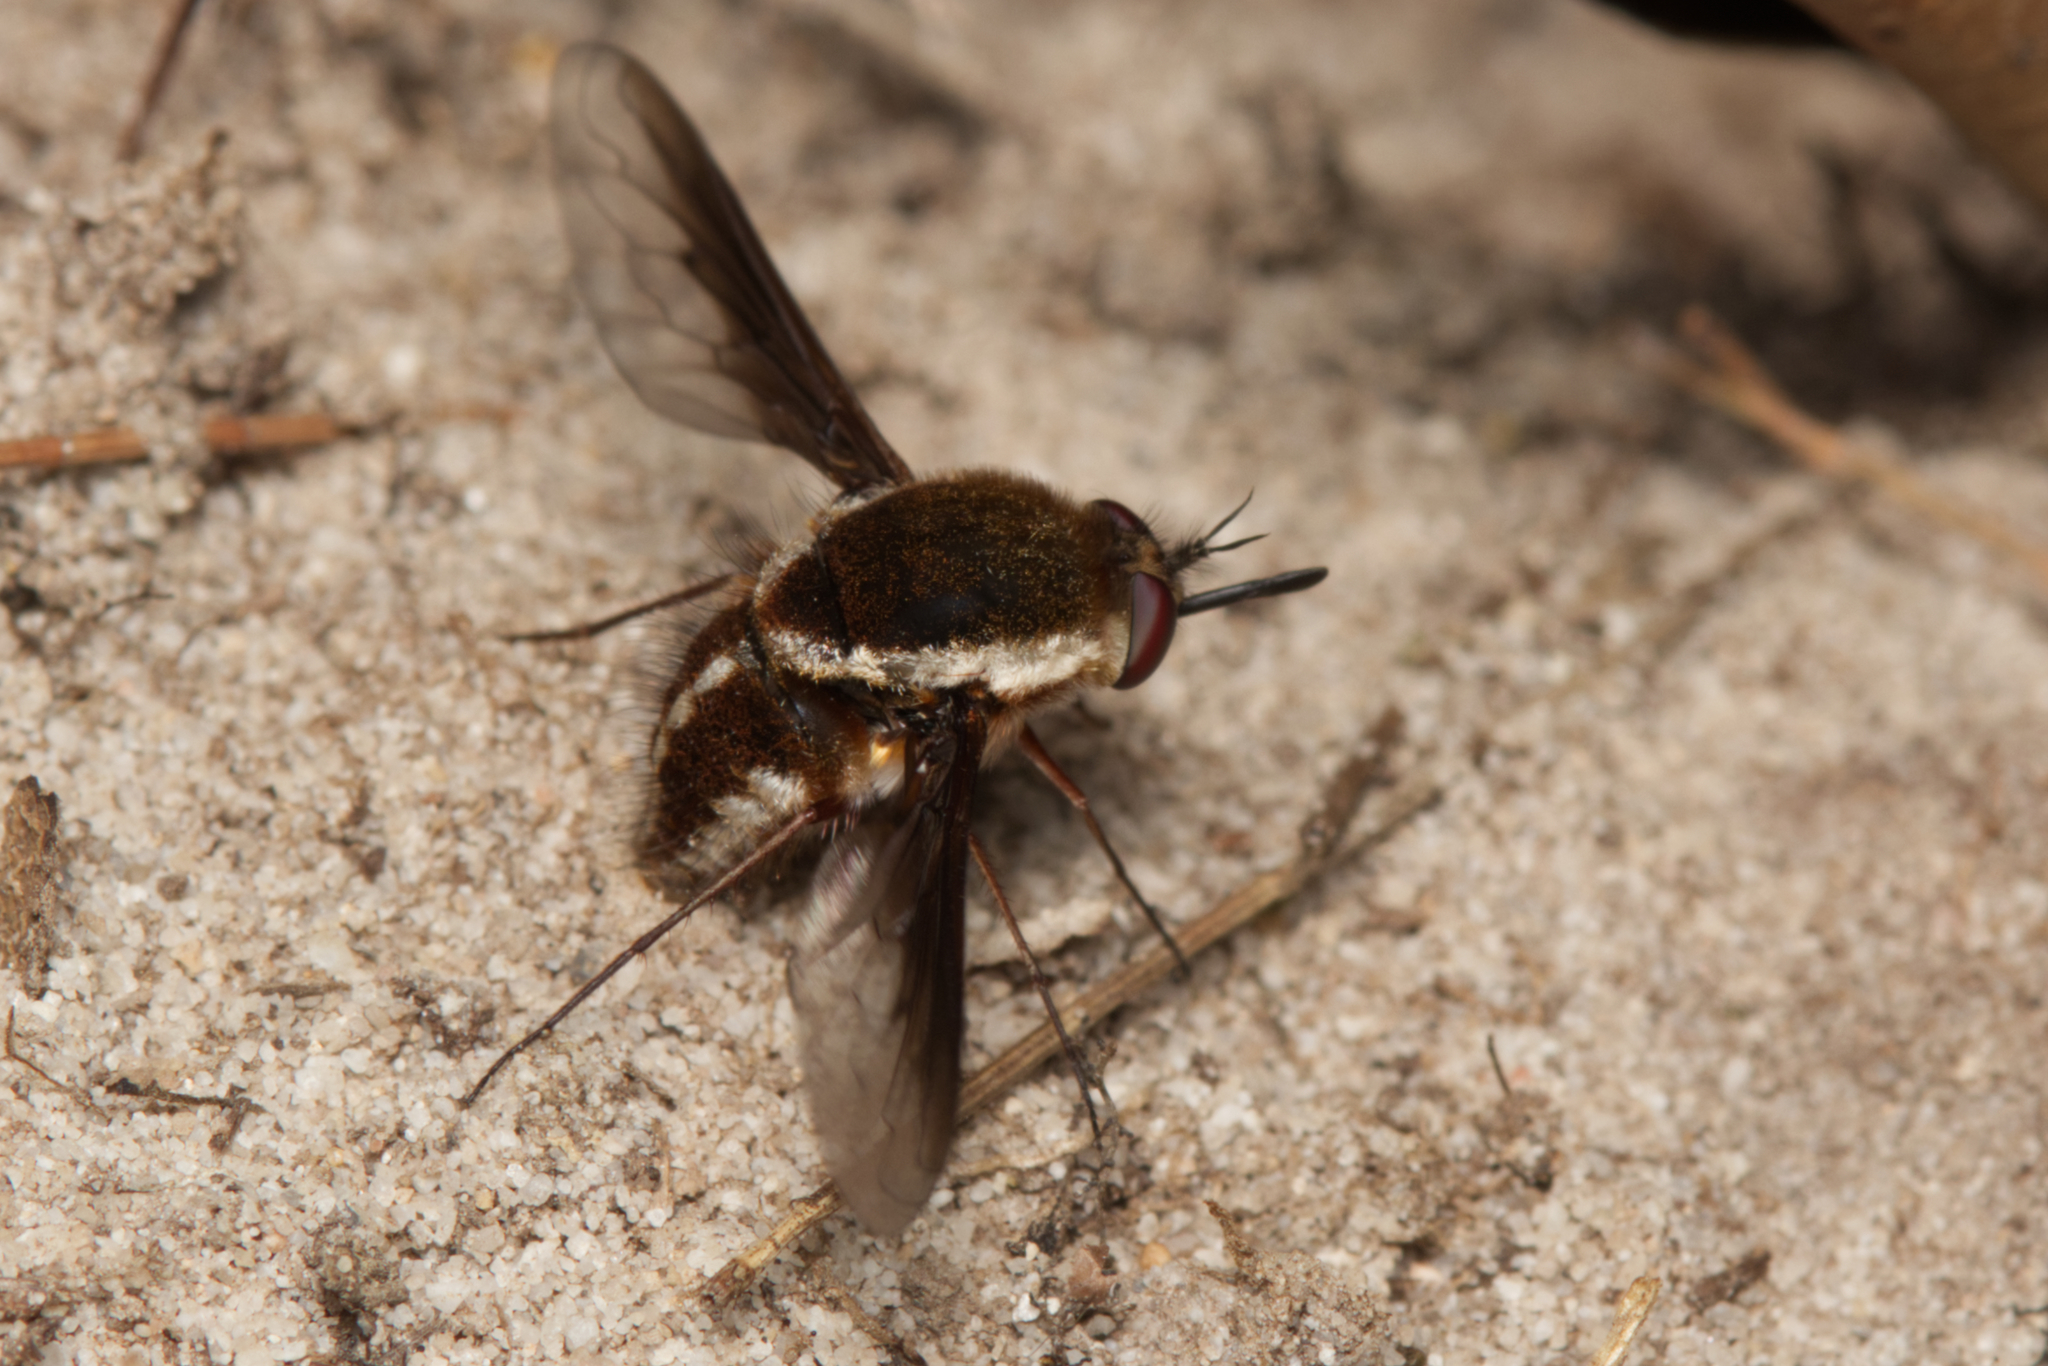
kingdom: Animalia
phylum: Arthropoda
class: Insecta
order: Diptera
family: Bombyliidae
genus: Staurostichus
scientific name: Staurostichus
